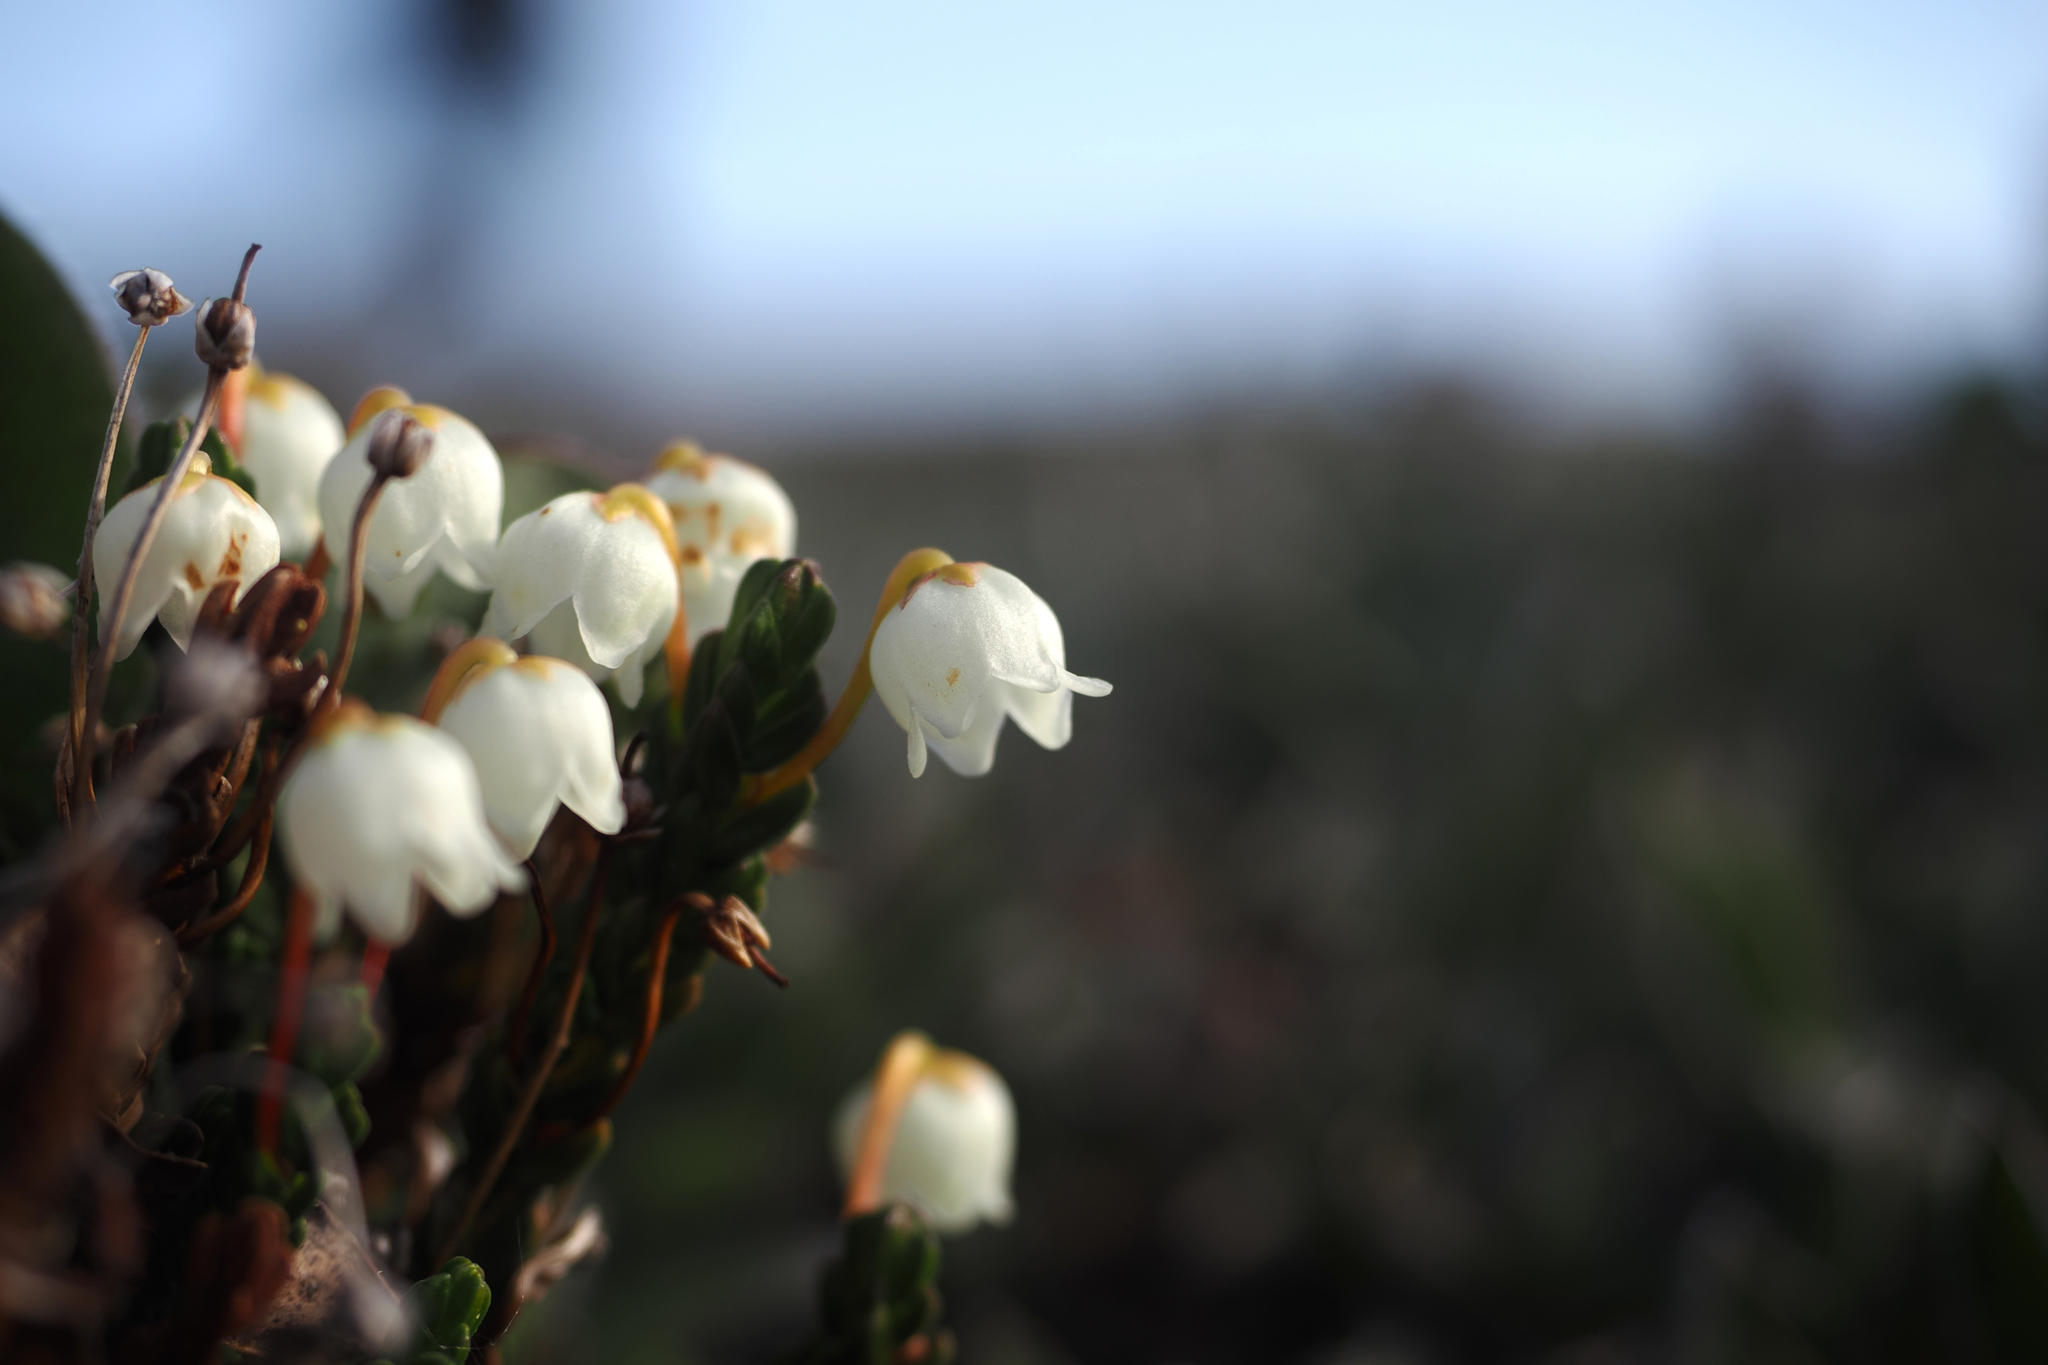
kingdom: Plantae
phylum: Tracheophyta
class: Magnoliopsida
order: Ericales
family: Ericaceae
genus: Cassiope
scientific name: Cassiope tetragona
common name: Arctic bell heather
